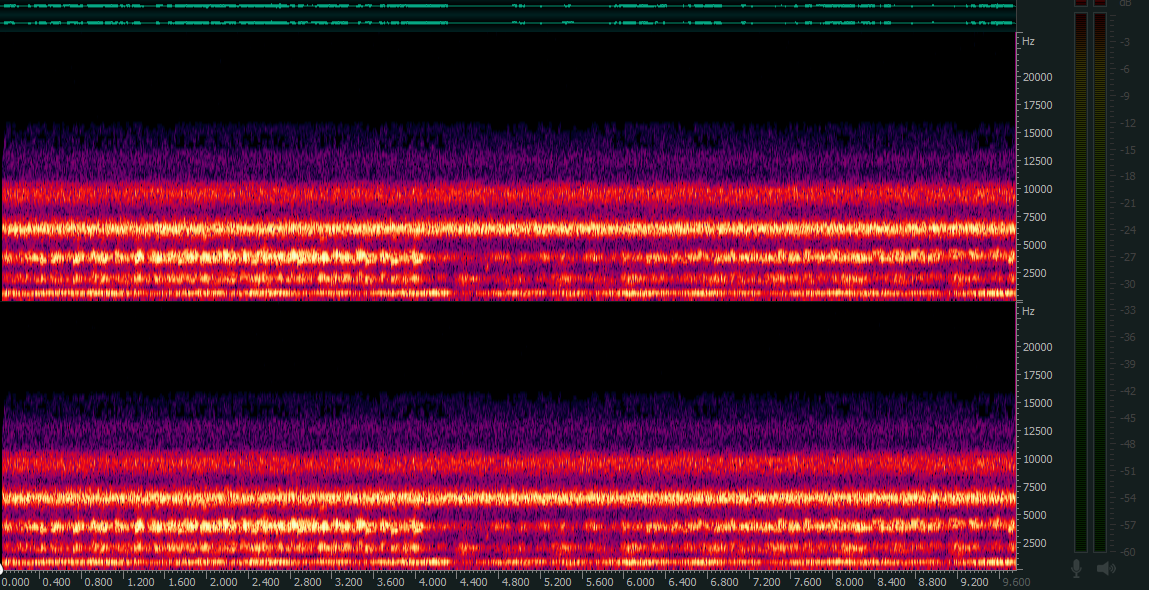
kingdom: Animalia
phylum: Chordata
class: Amphibia
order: Anura
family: Dicroglossidae
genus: Hoplobatrachus
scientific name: Hoplobatrachus tigerinus
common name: Indian bullfrog
